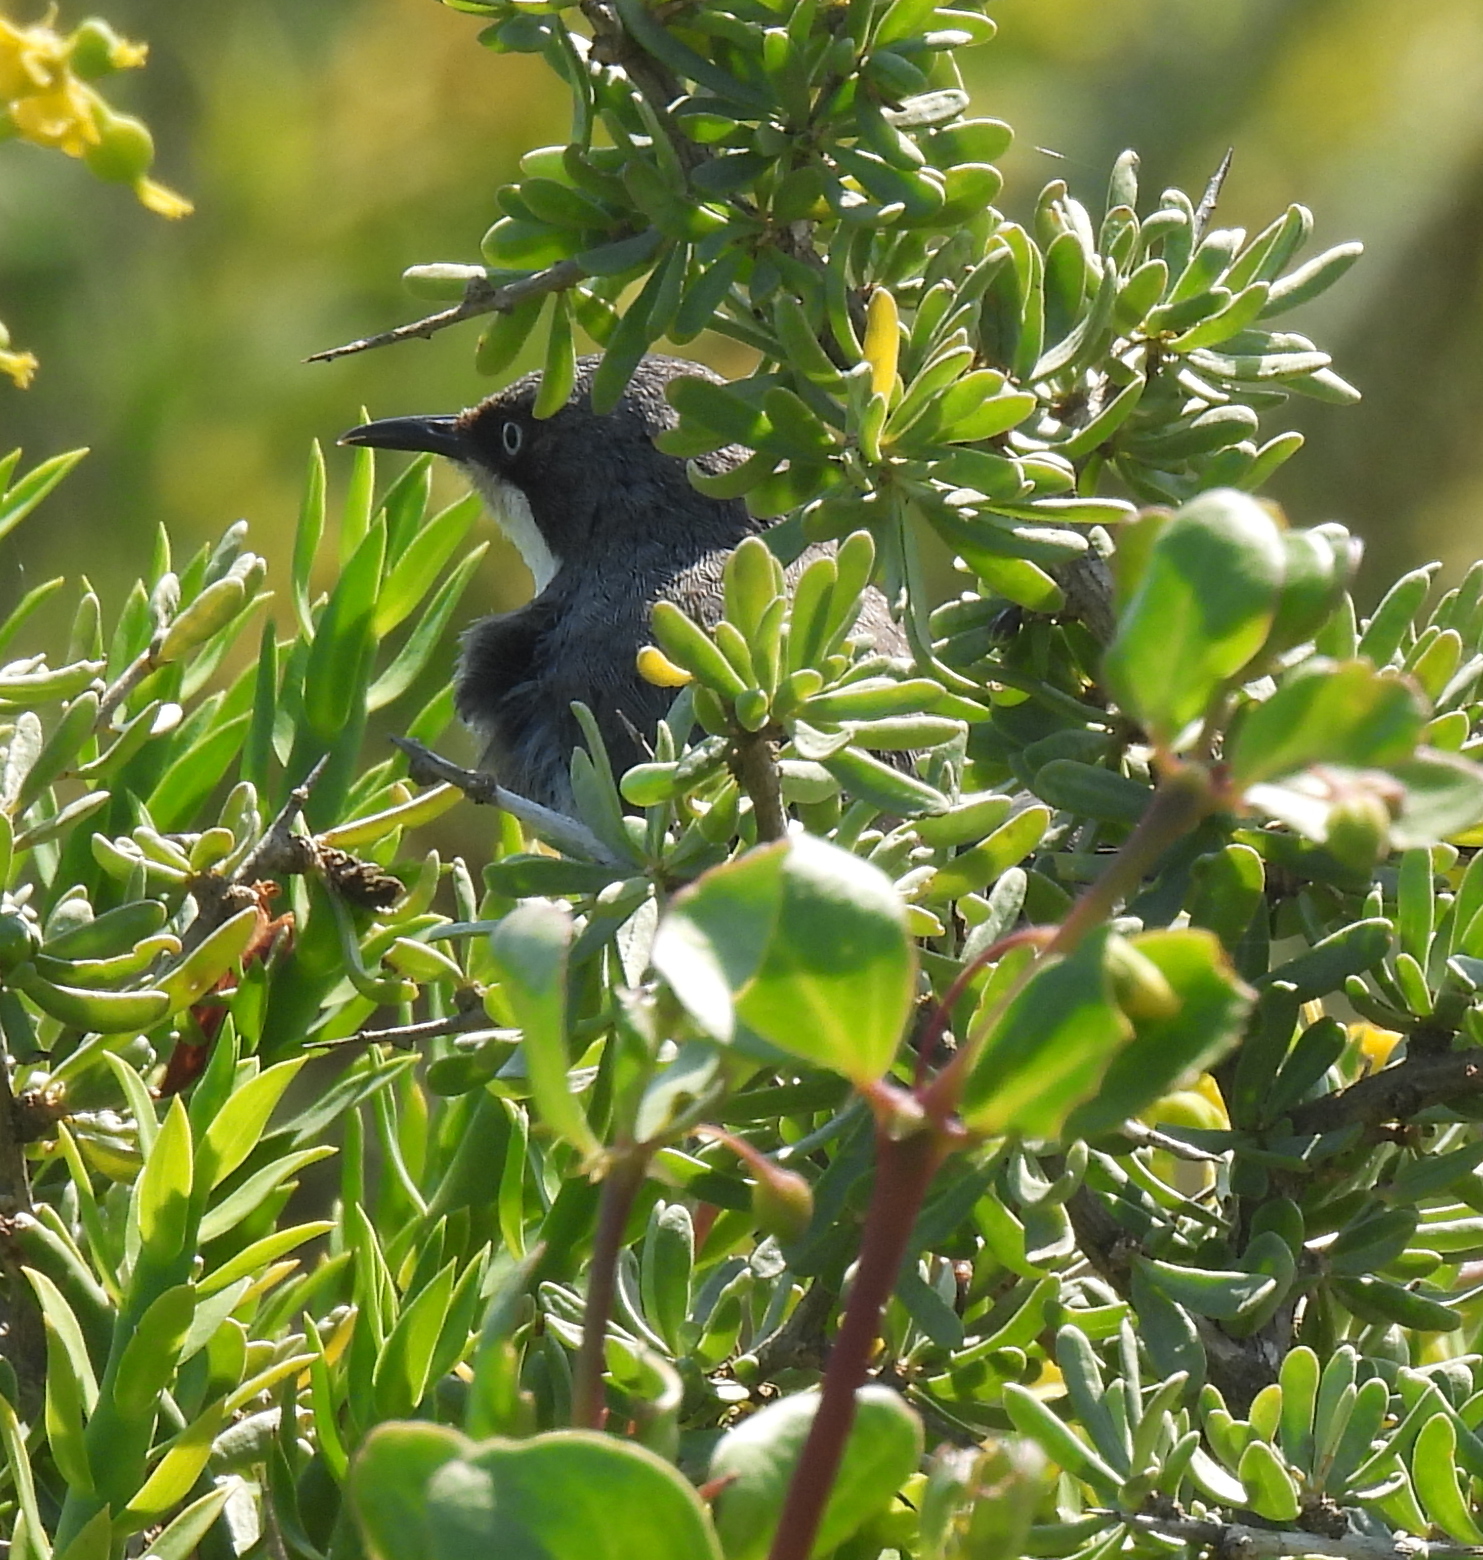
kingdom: Animalia
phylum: Chordata
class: Aves
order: Passeriformes
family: Cisticolidae
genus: Apalis
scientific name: Apalis thoracica
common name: Bar-throated apalis
